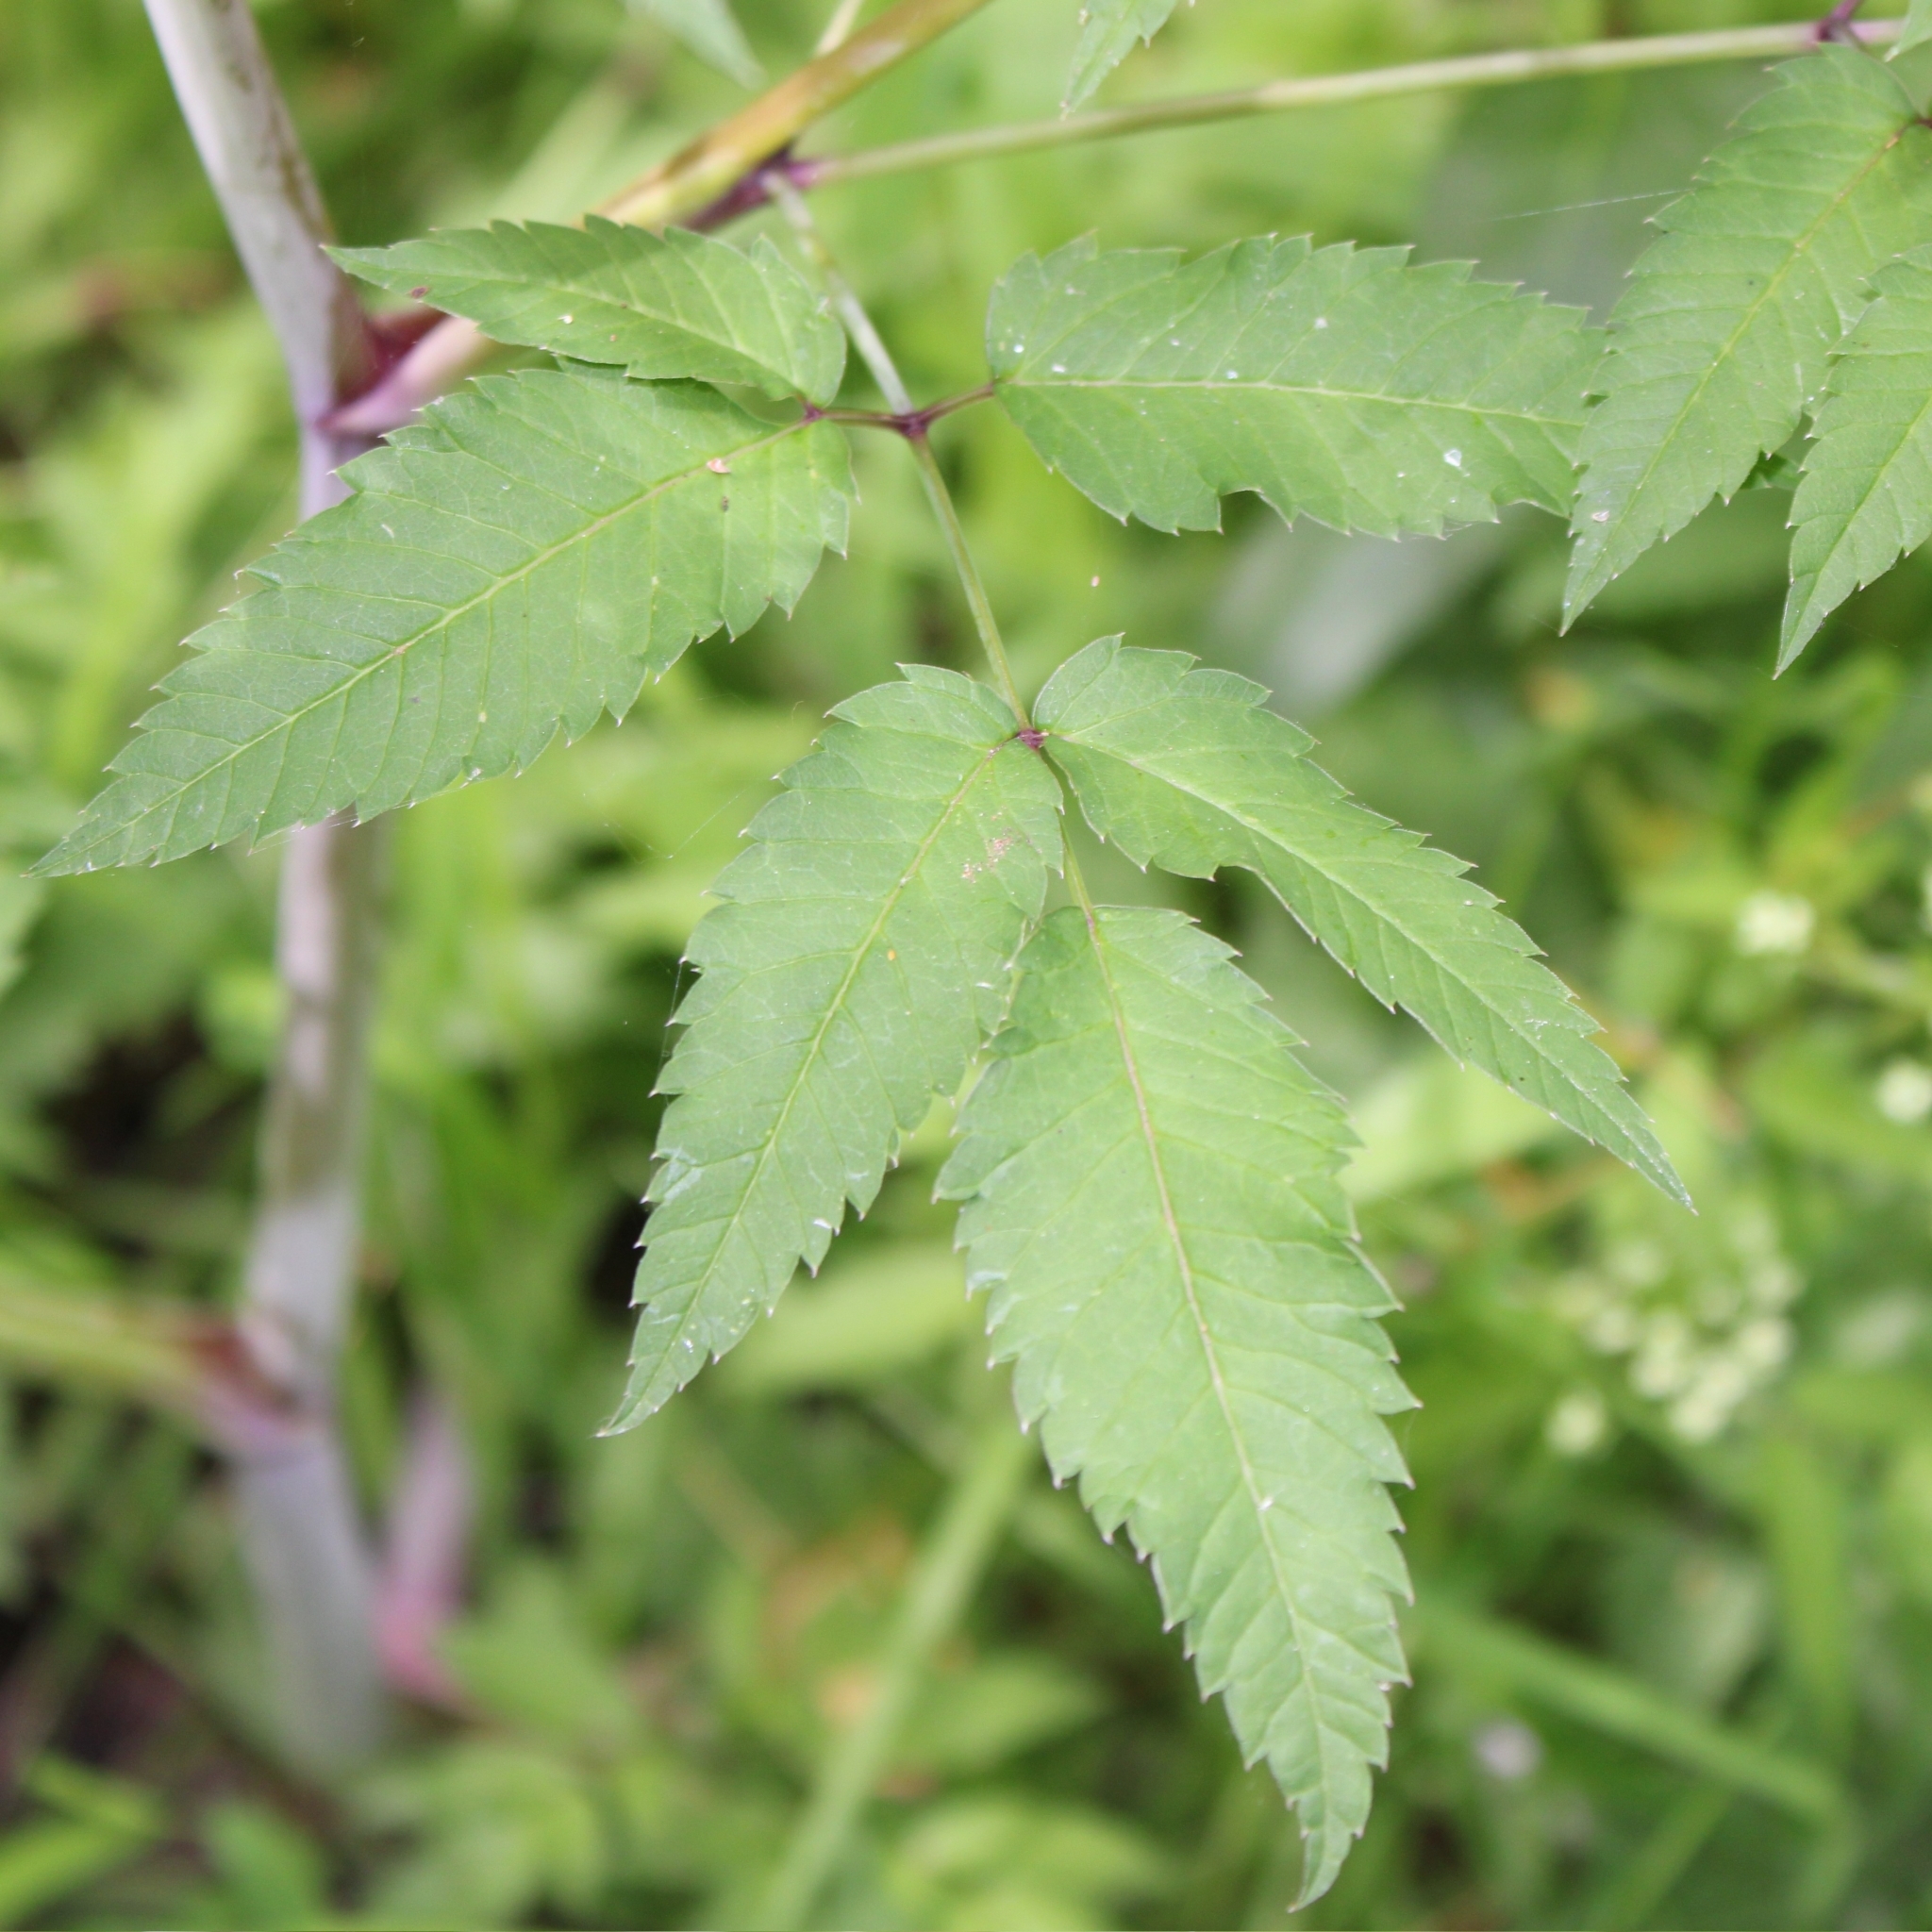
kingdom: Plantae
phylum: Tracheophyta
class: Magnoliopsida
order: Apiales
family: Apiaceae
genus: Cicuta
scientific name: Cicuta maculata
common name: Spotted cowbane
